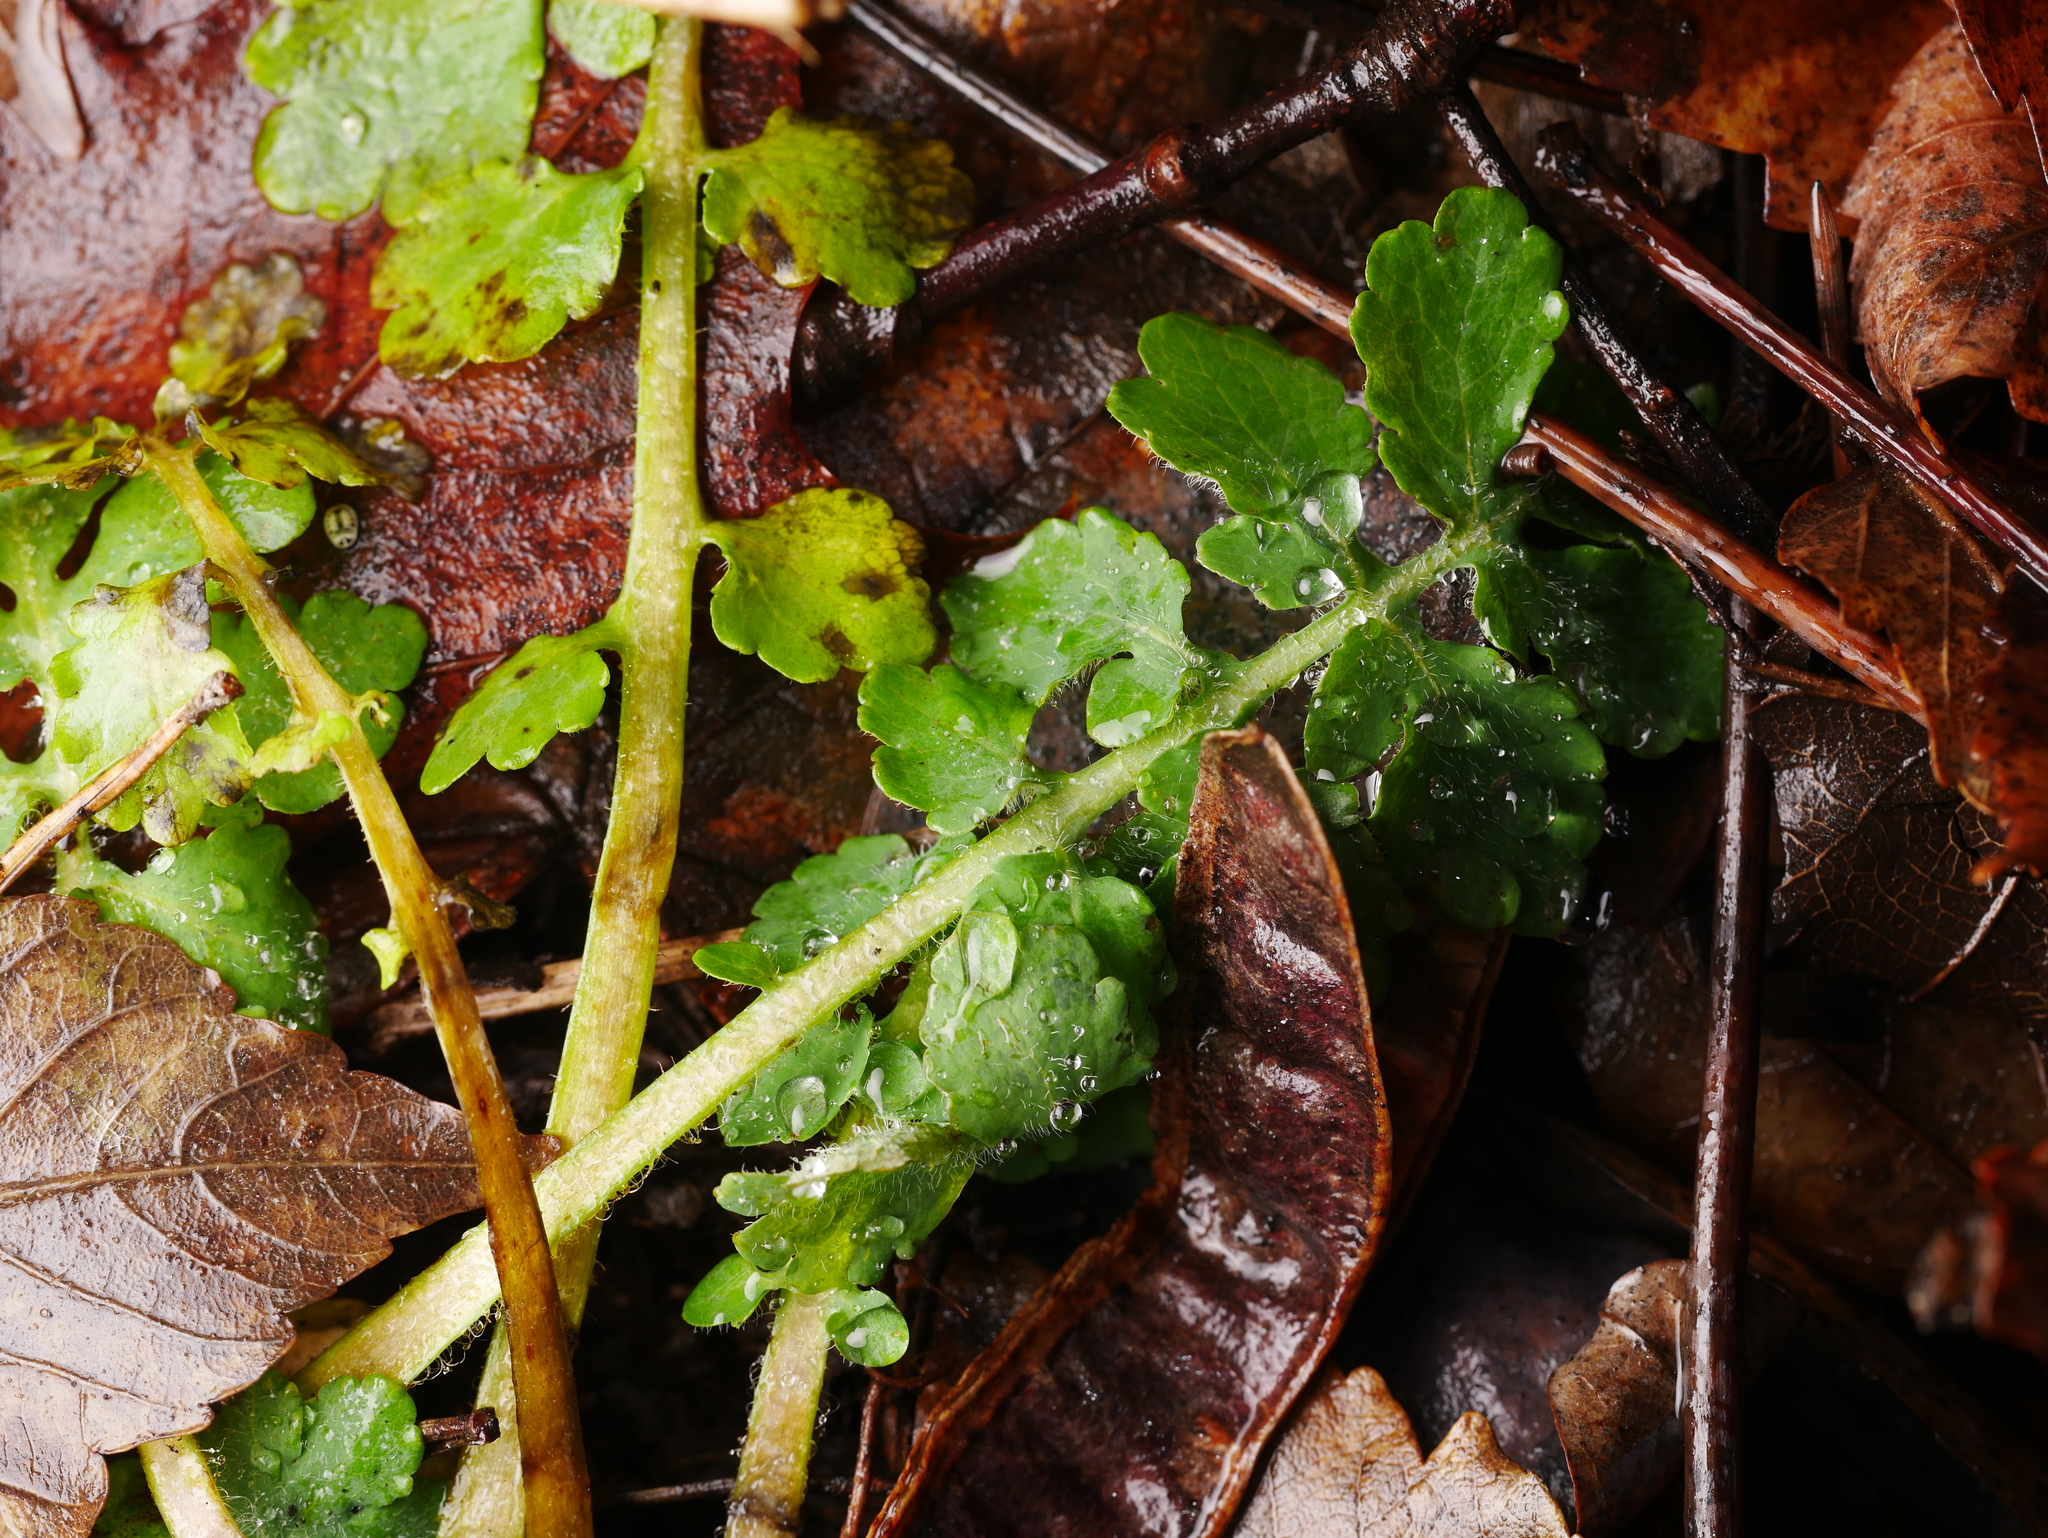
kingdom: Plantae
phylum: Tracheophyta
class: Magnoliopsida
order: Ranunculales
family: Papaveraceae
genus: Chelidonium
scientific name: Chelidonium majus
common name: Greater celandine
